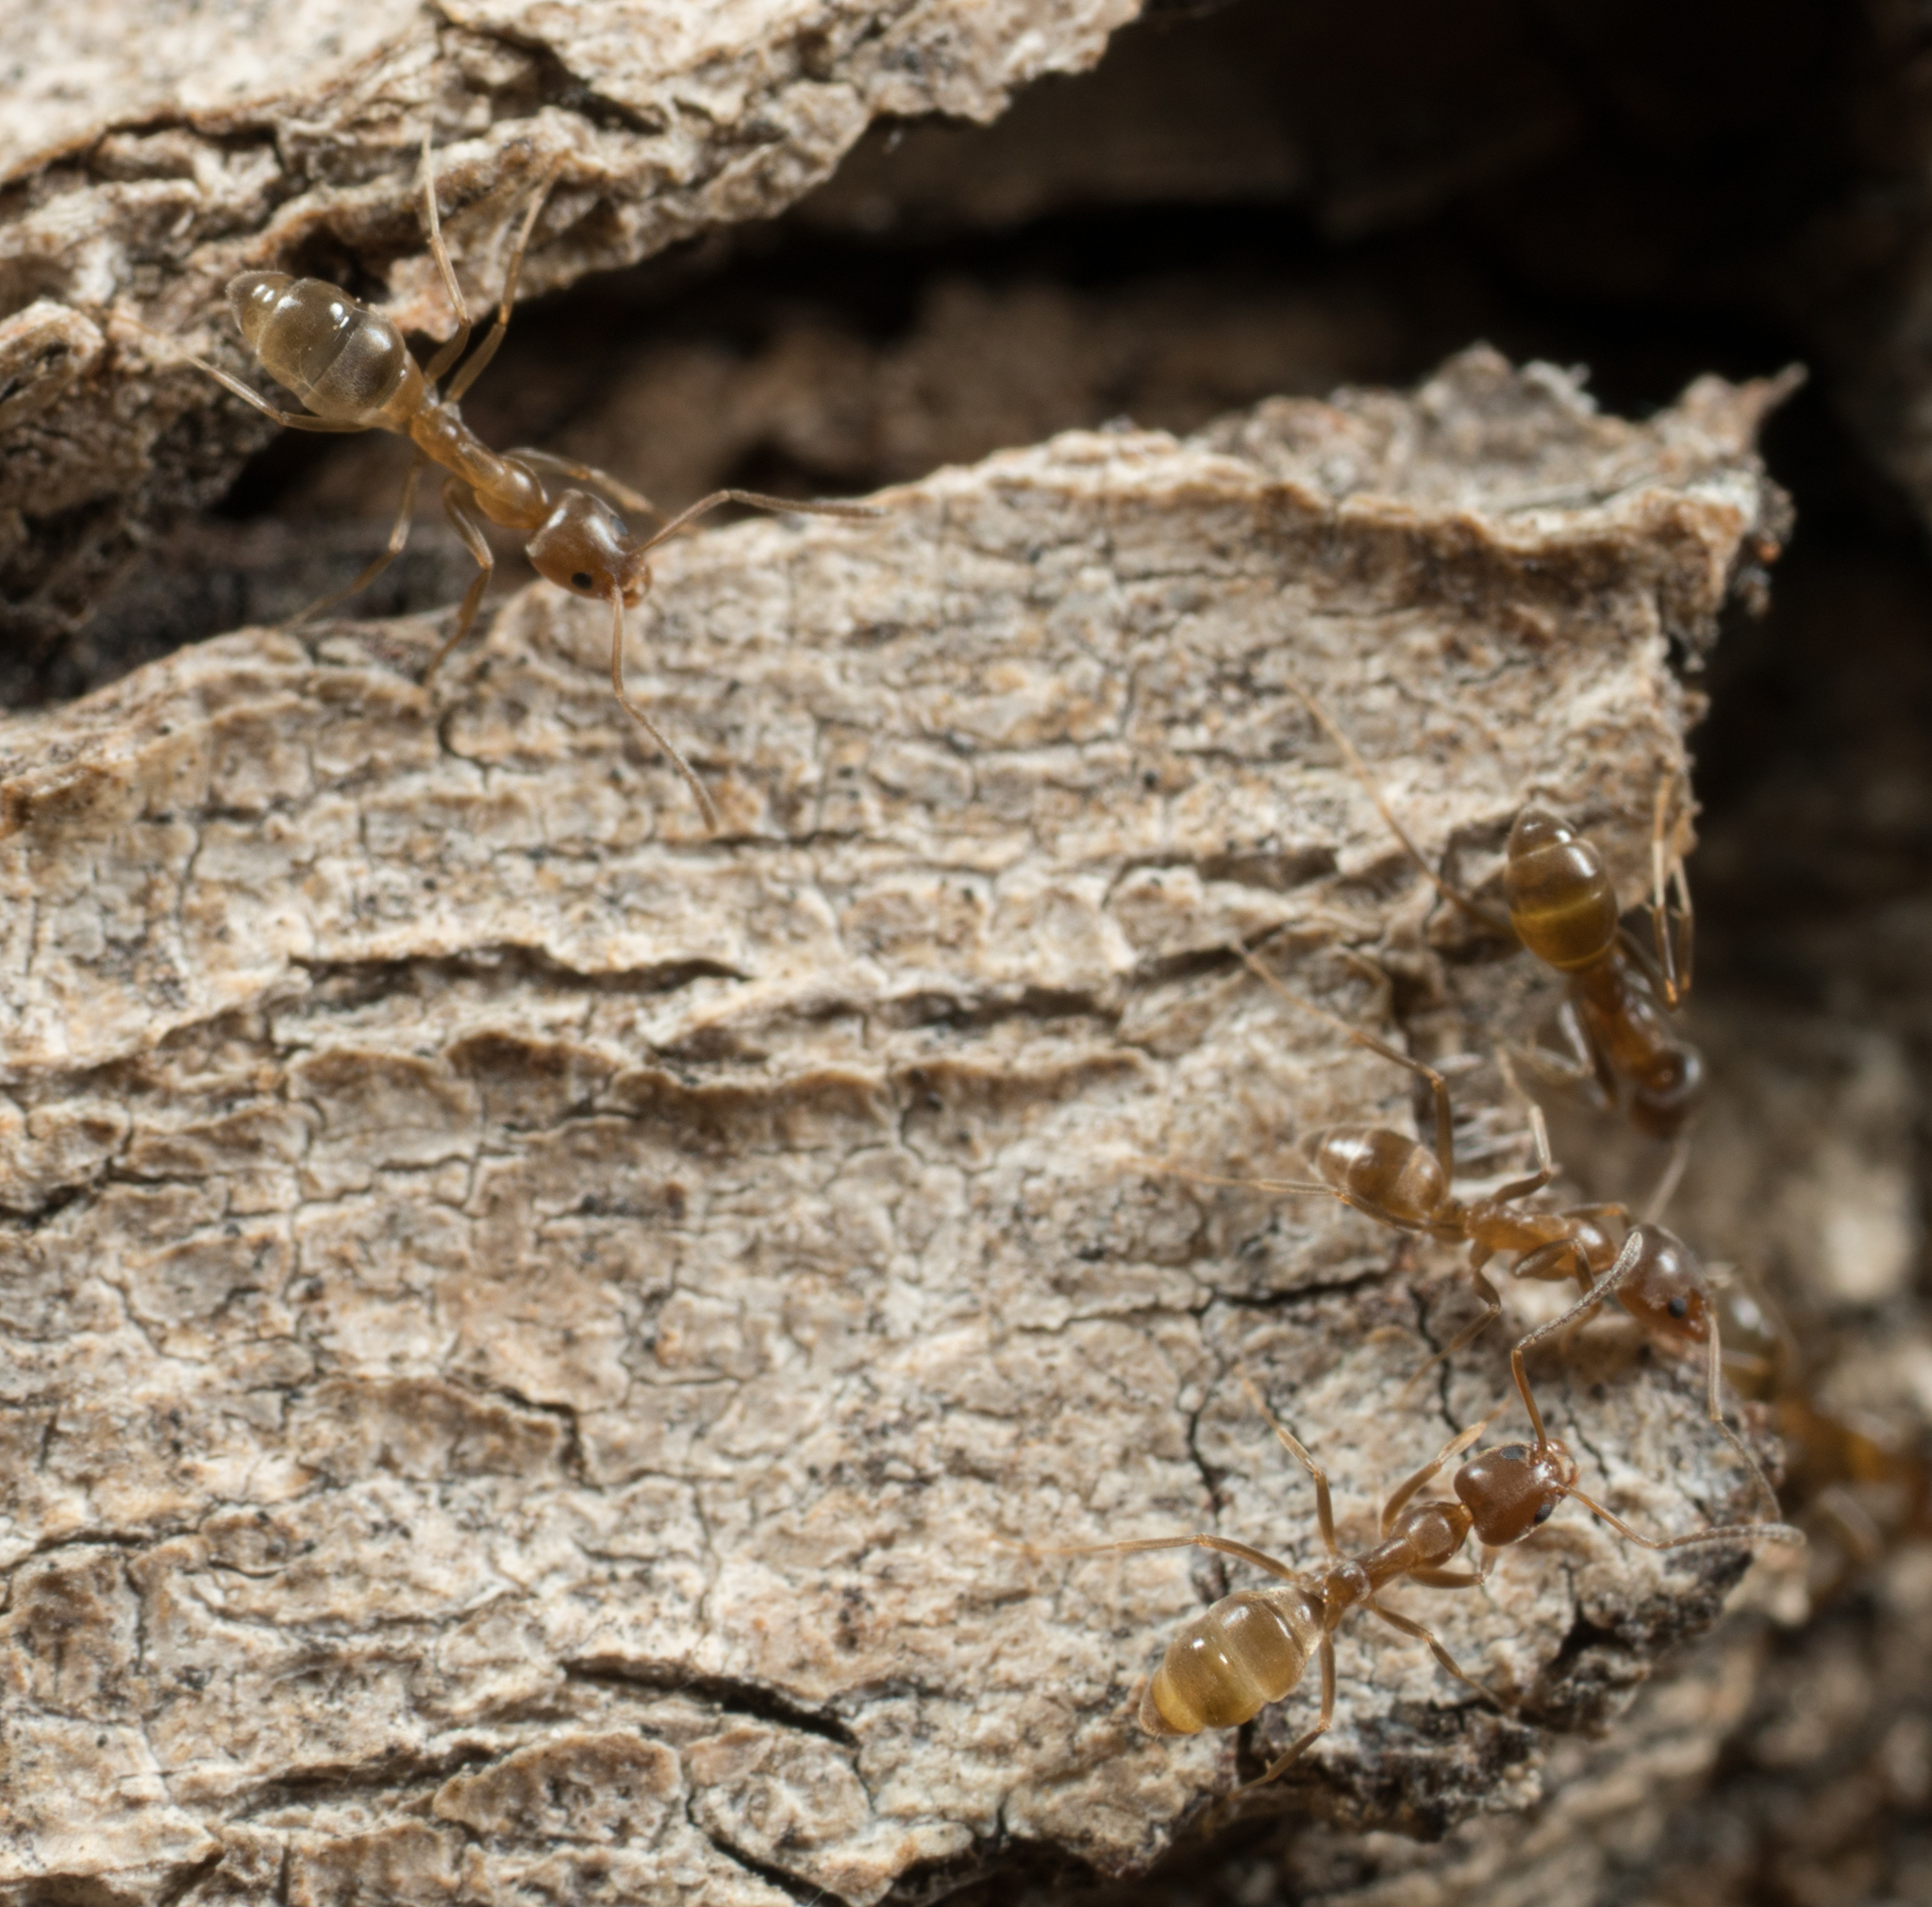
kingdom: Animalia
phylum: Arthropoda
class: Insecta
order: Hymenoptera
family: Formicidae
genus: Linepithema
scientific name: Linepithema humile
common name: Argentine ant
